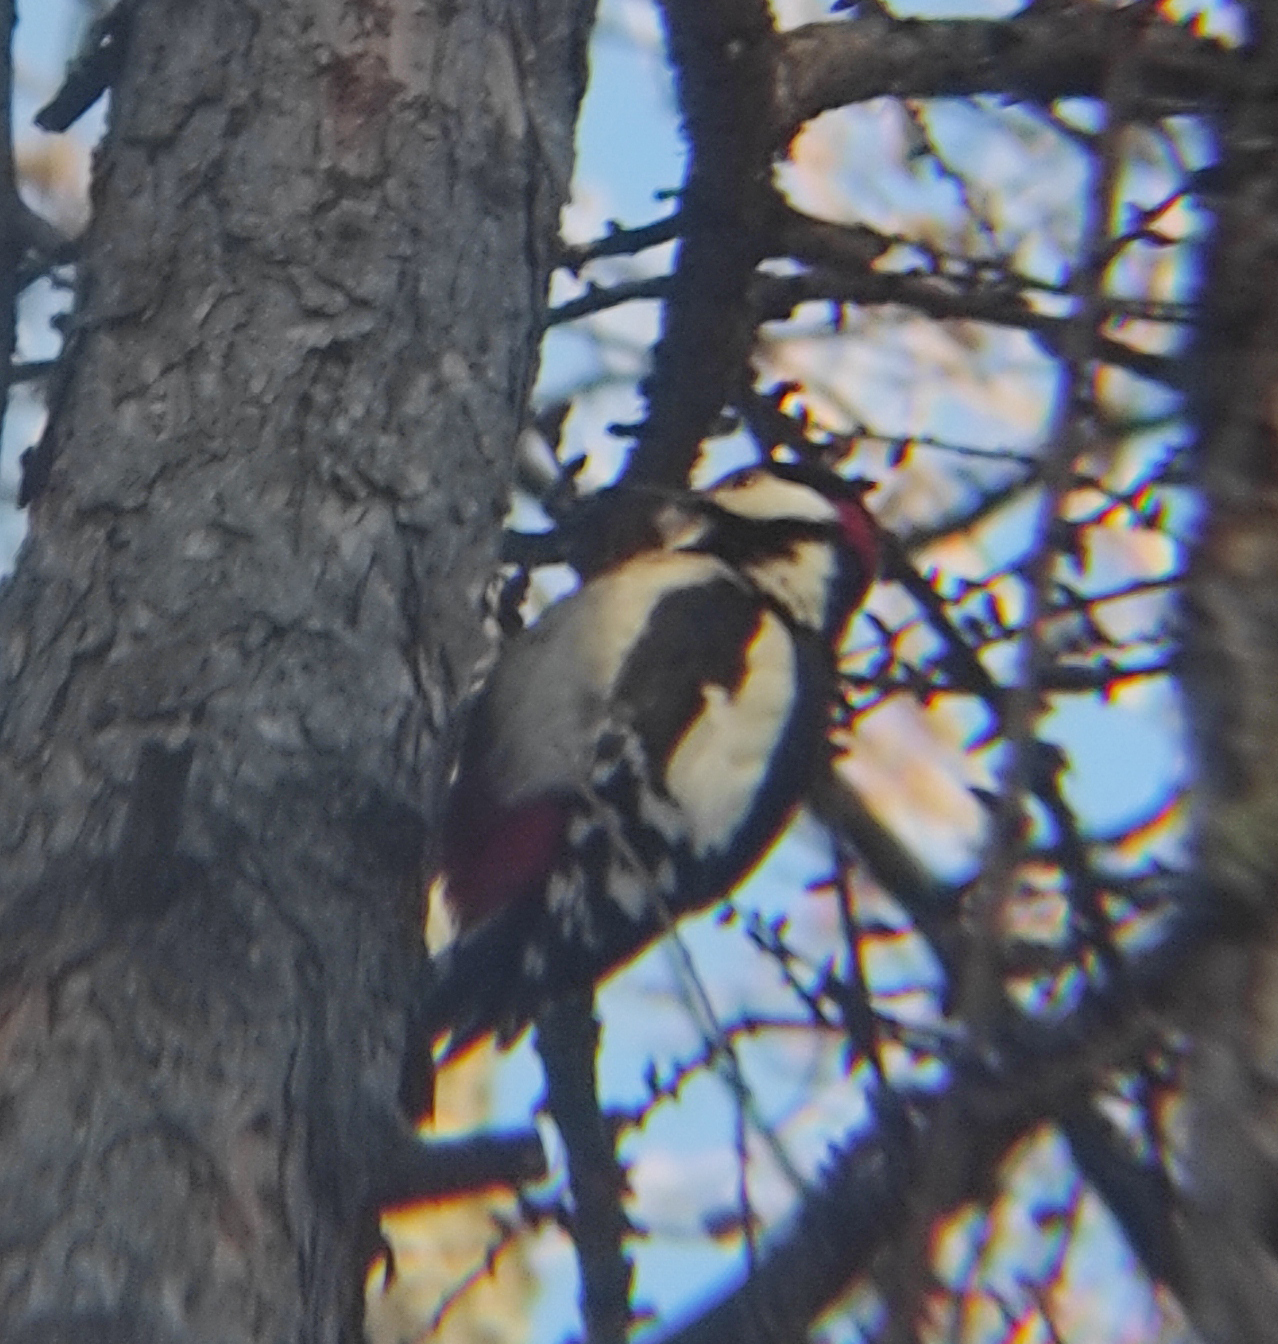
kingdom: Animalia
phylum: Chordata
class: Aves
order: Piciformes
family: Picidae
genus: Dendrocopos
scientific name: Dendrocopos major
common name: Great spotted woodpecker
